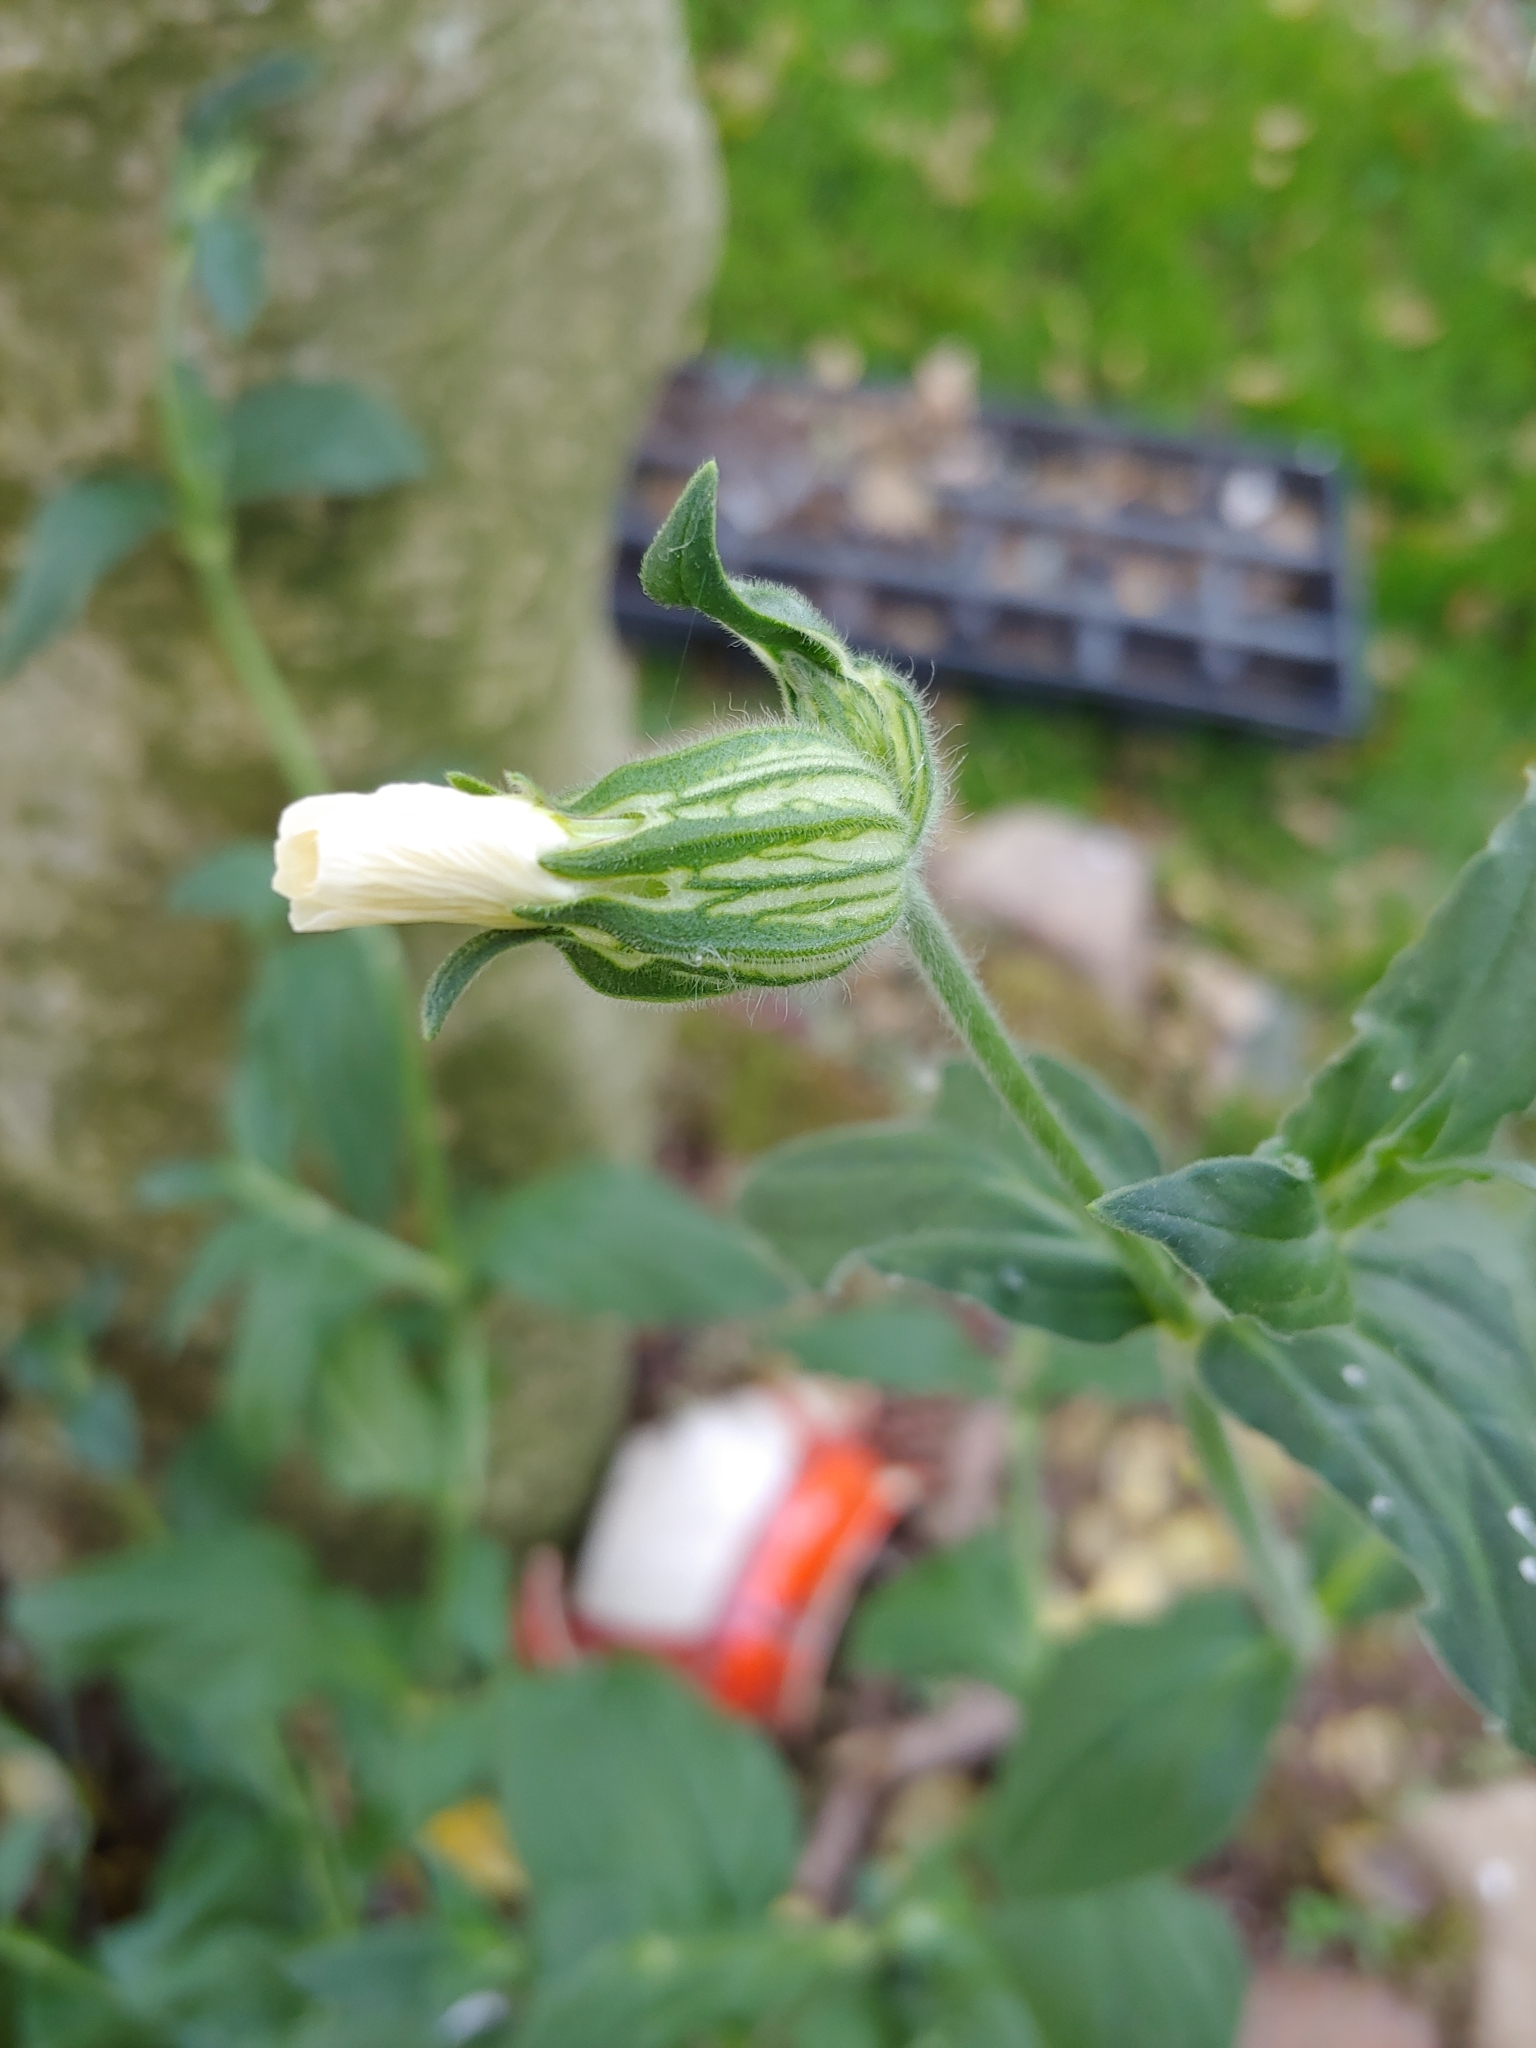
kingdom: Plantae
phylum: Tracheophyta
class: Magnoliopsida
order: Caryophyllales
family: Caryophyllaceae
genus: Silene
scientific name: Silene latifolia
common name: White campion
